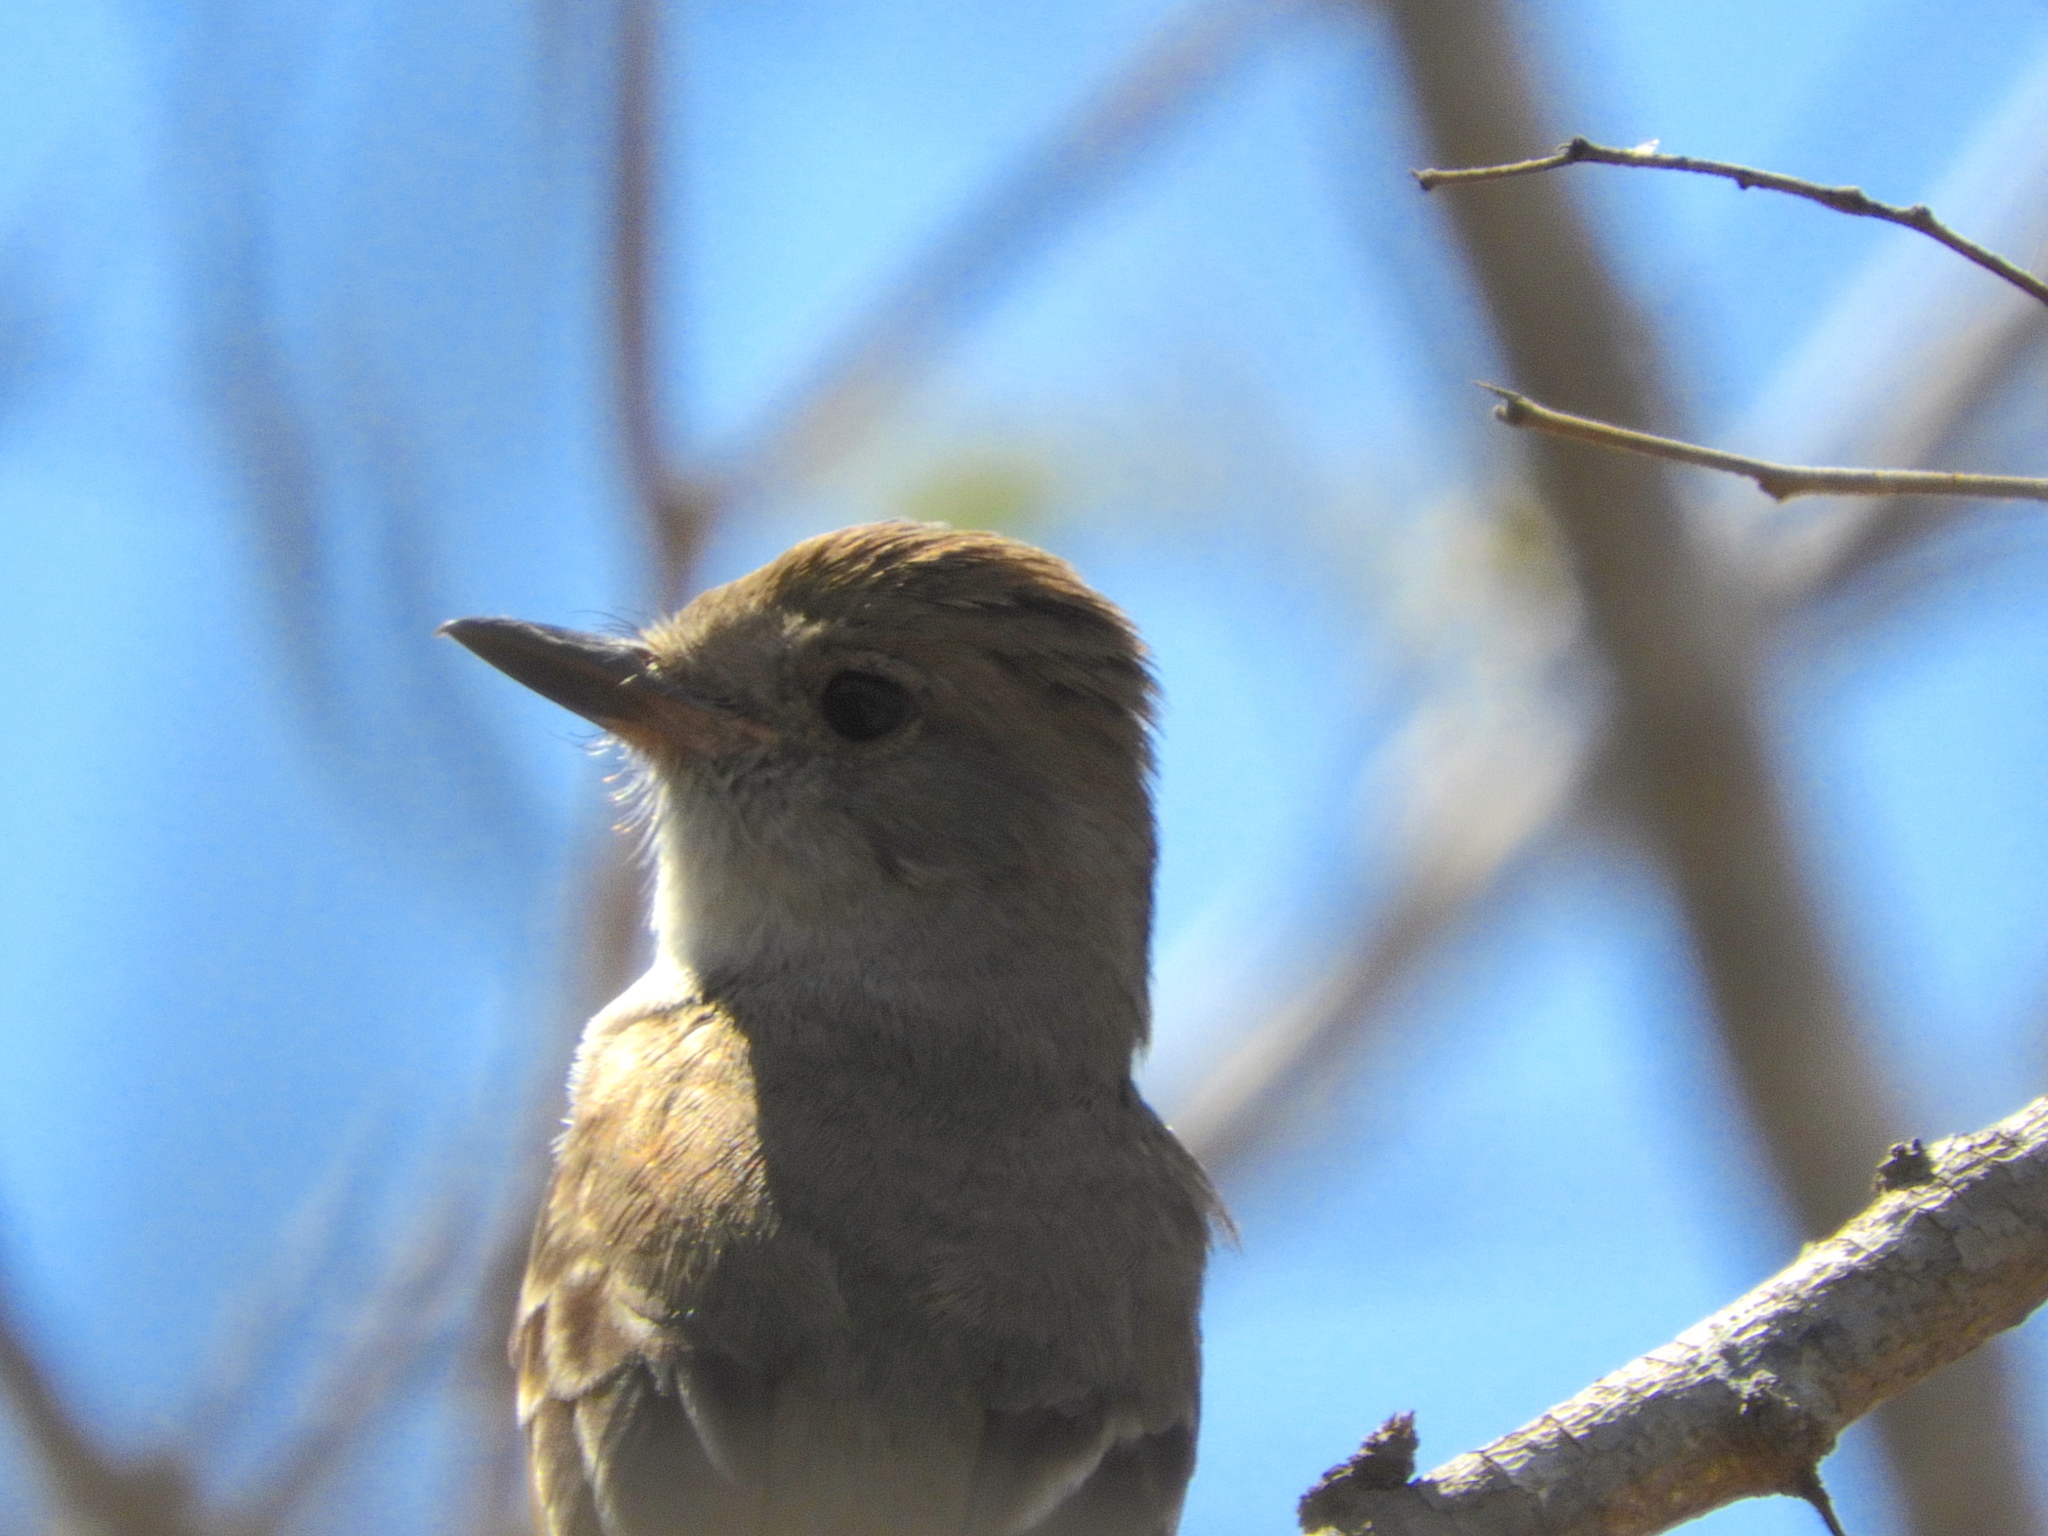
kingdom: Animalia
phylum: Chordata
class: Aves
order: Passeriformes
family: Tyrannidae
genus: Myiarchus
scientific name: Myiarchus
